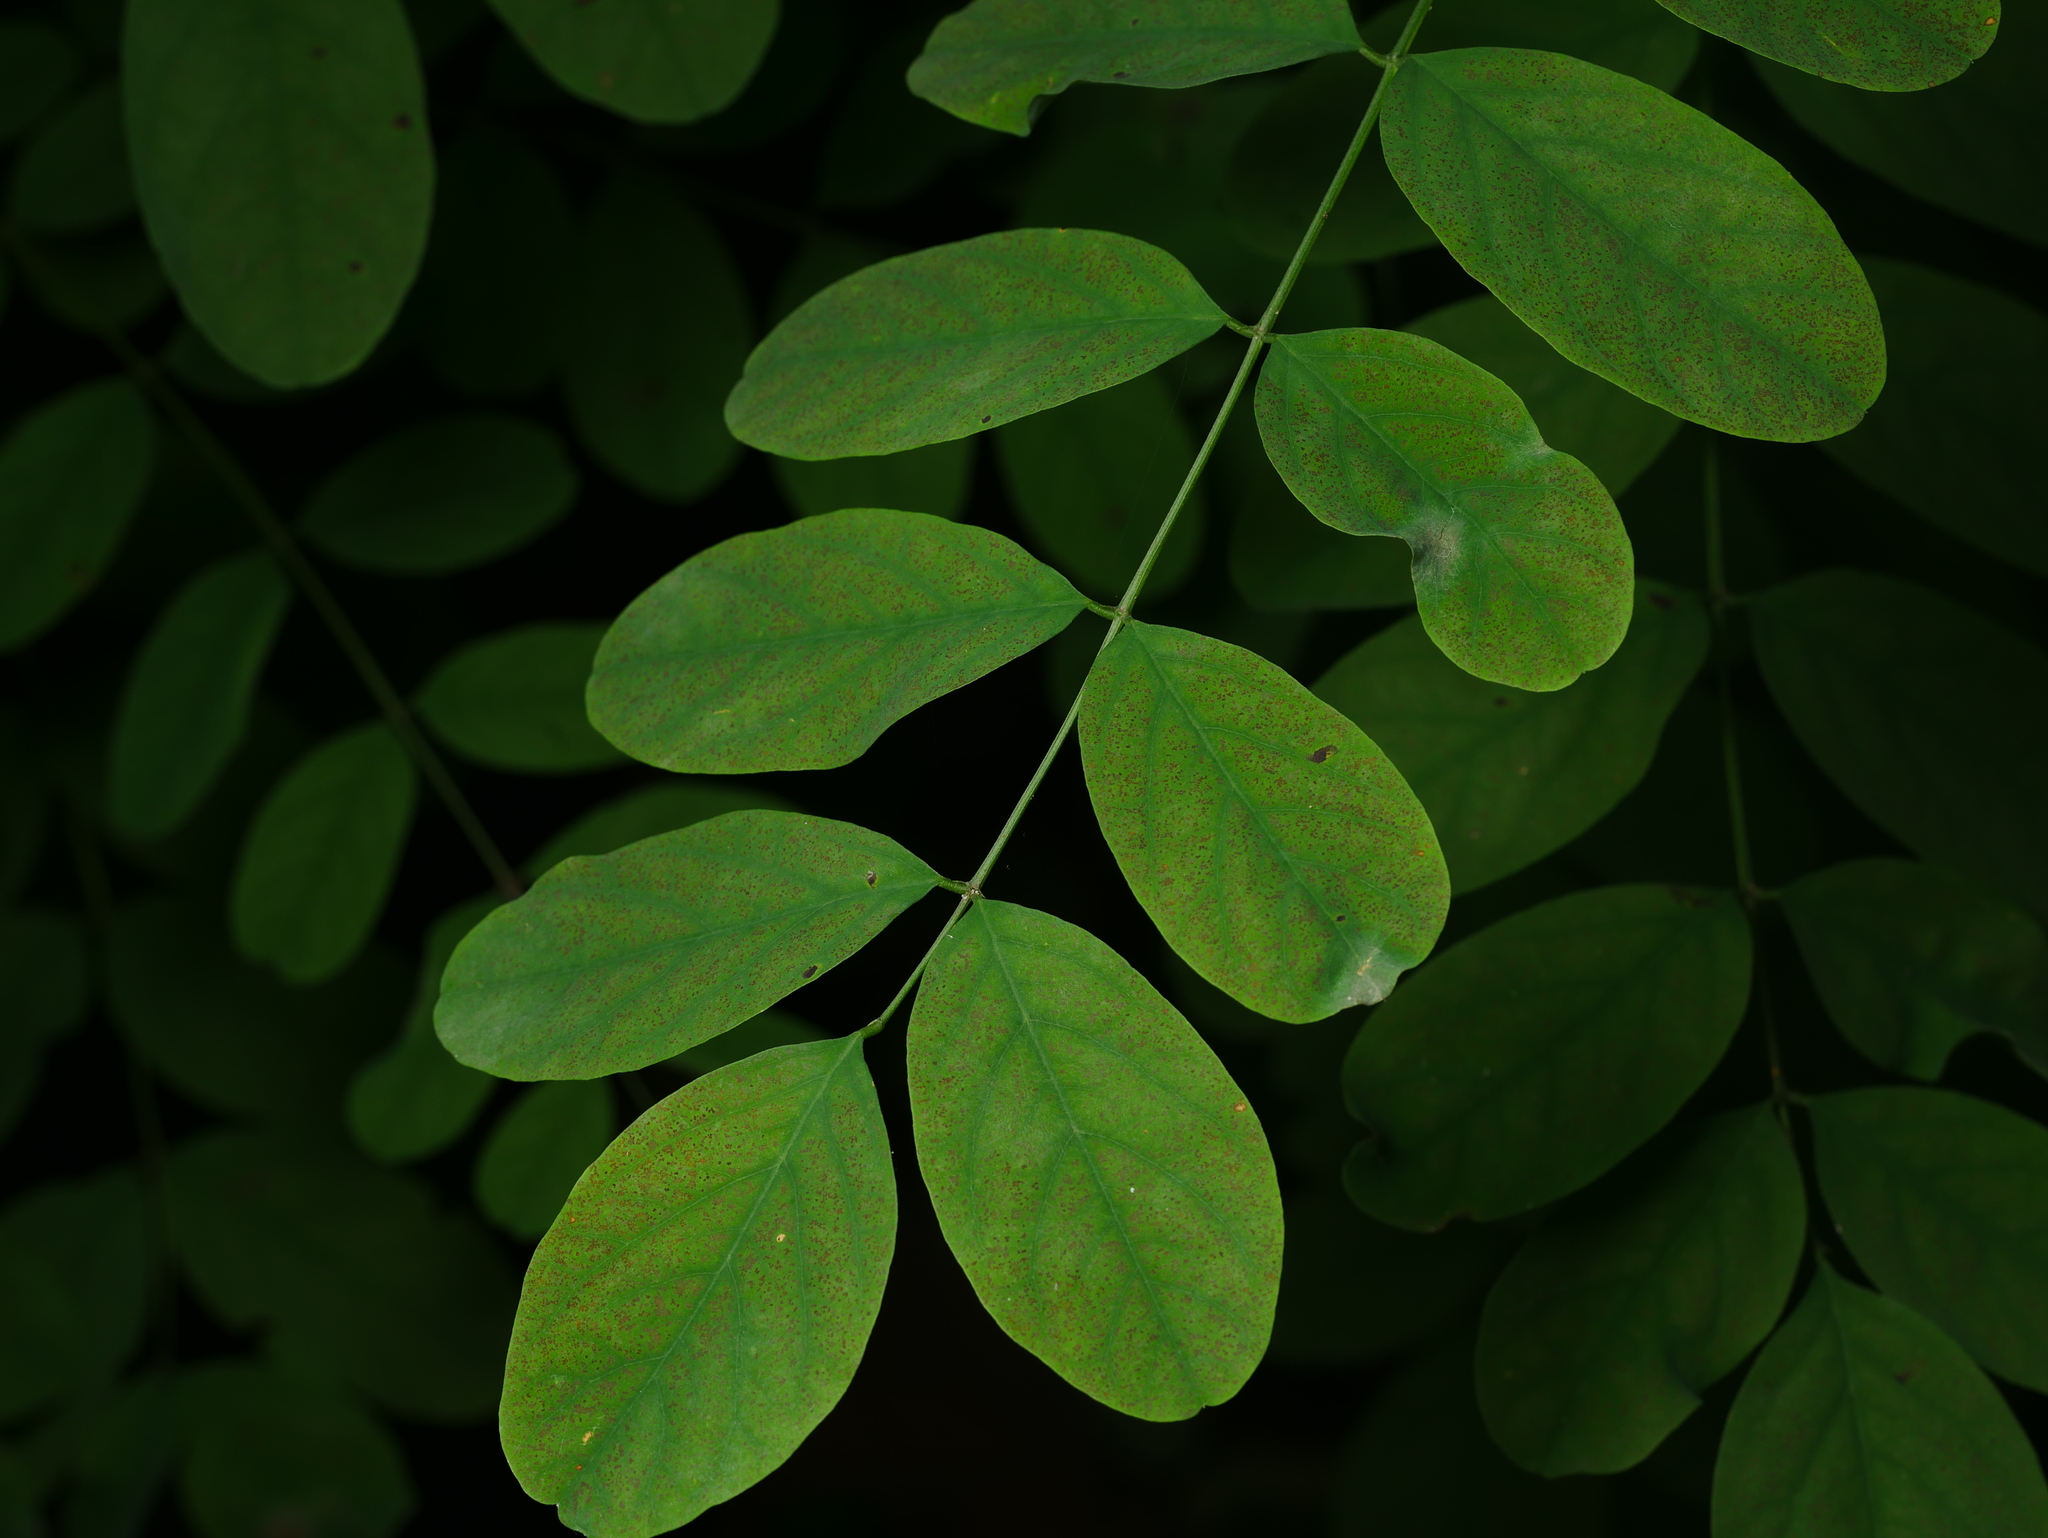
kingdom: Plantae
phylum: Tracheophyta
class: Magnoliopsida
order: Fabales
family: Fabaceae
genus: Robinia
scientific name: Robinia pseudoacacia
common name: Black locust
